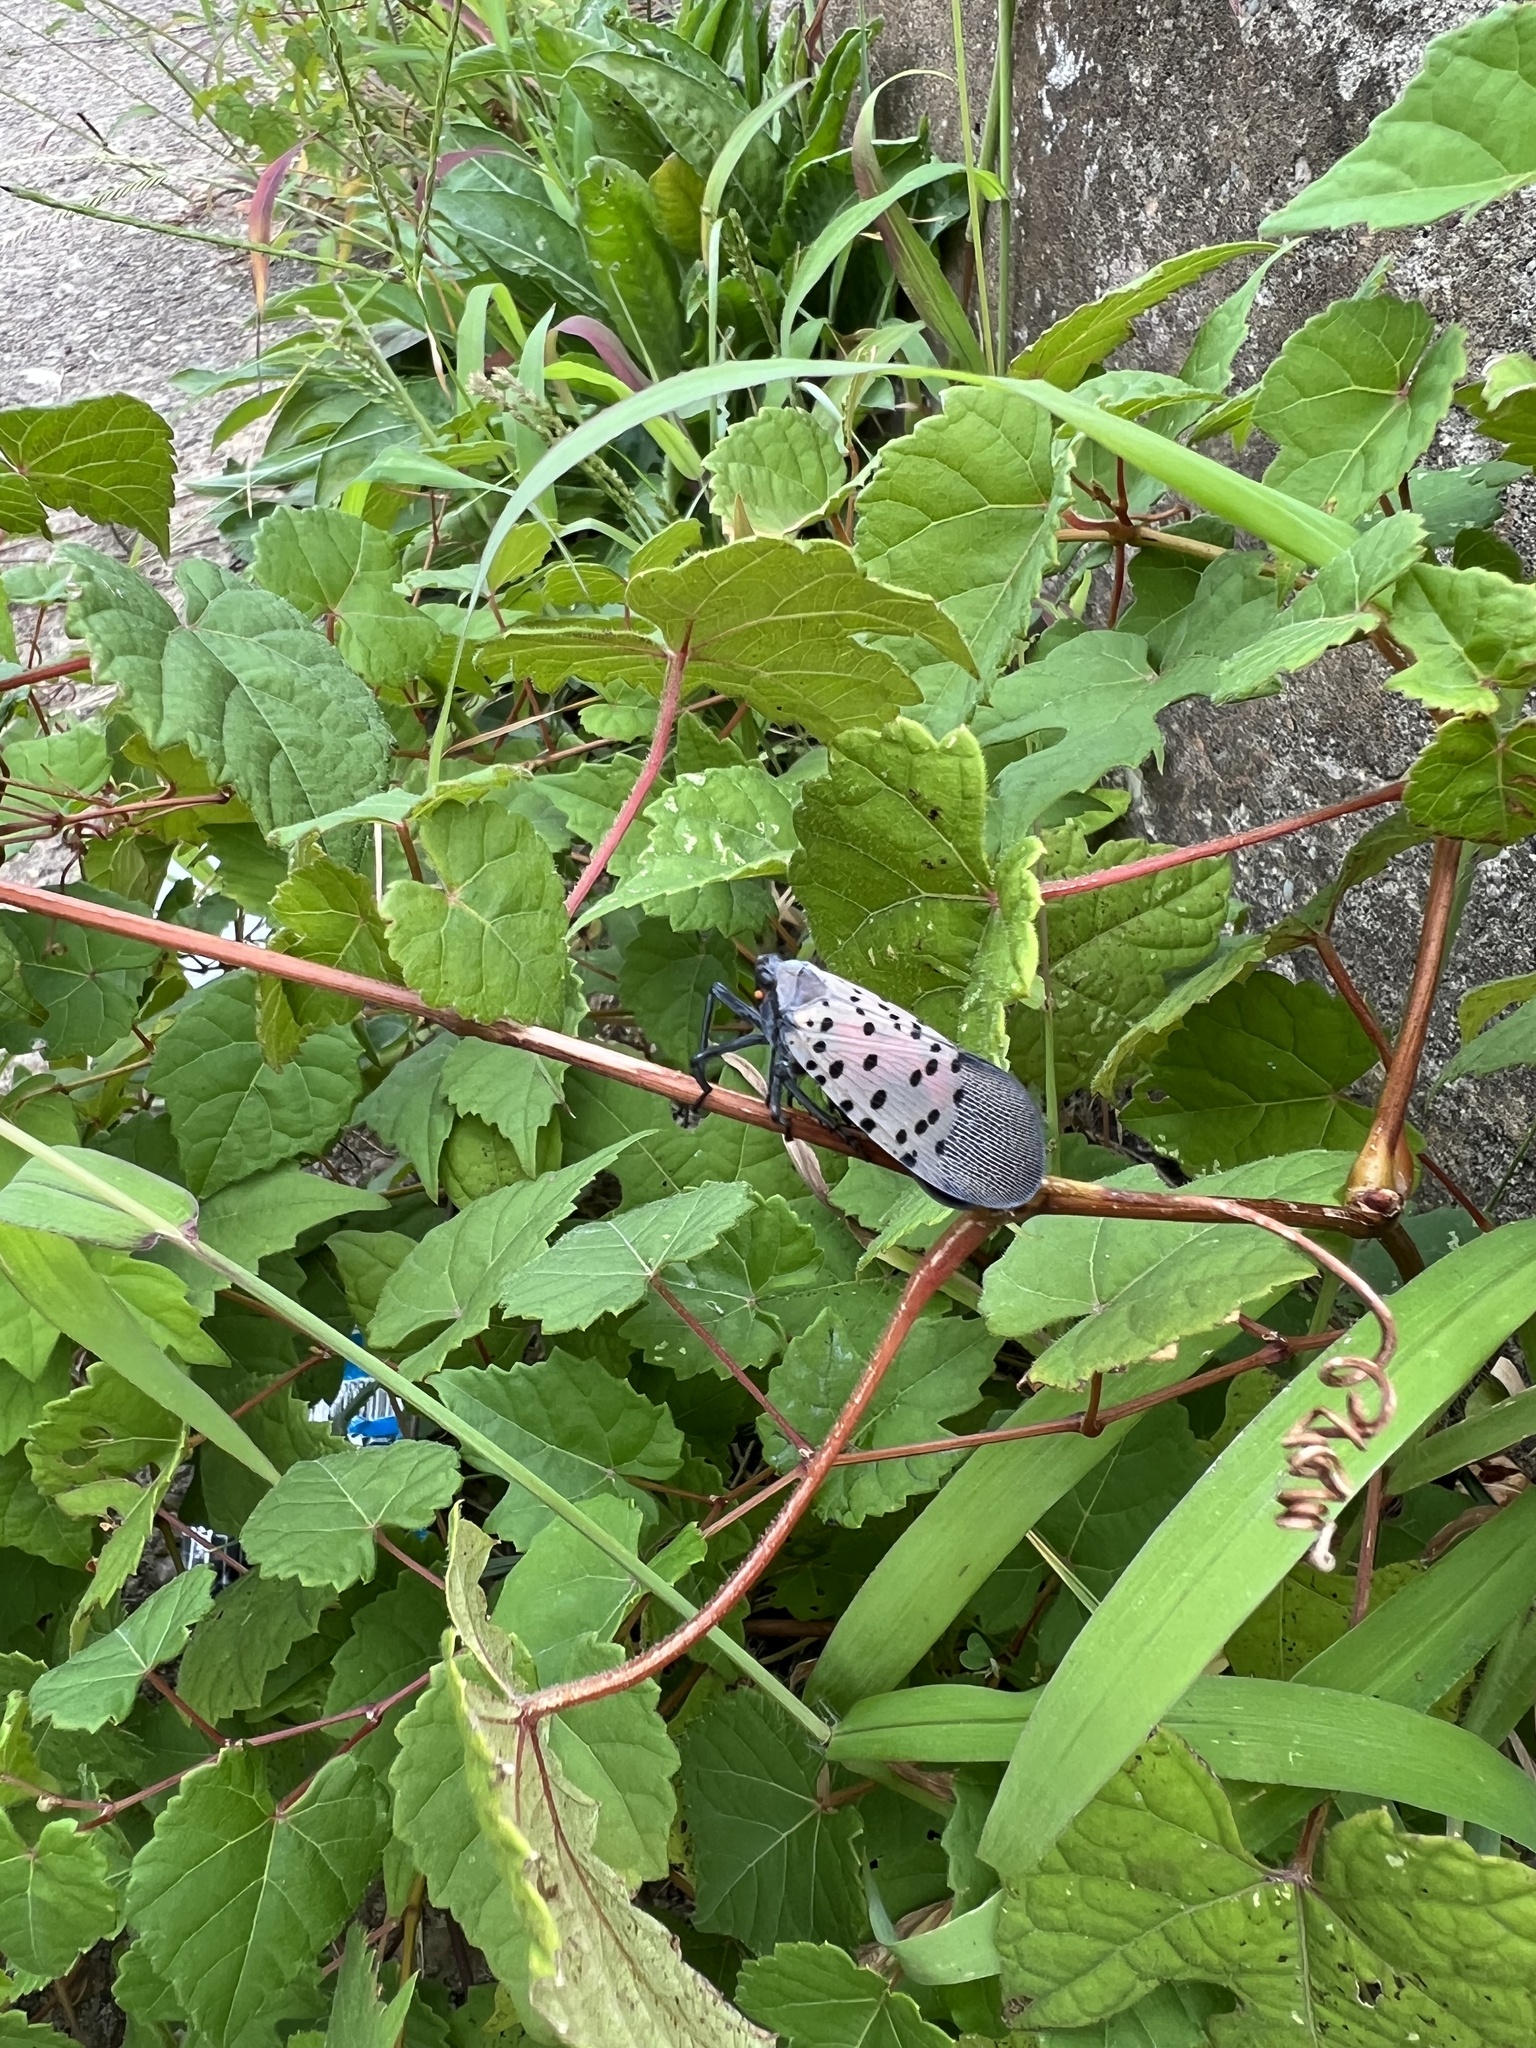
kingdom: Animalia
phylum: Arthropoda
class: Insecta
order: Hemiptera
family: Fulgoridae
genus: Lycorma
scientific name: Lycorma delicatula
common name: Spotted lanternfly
